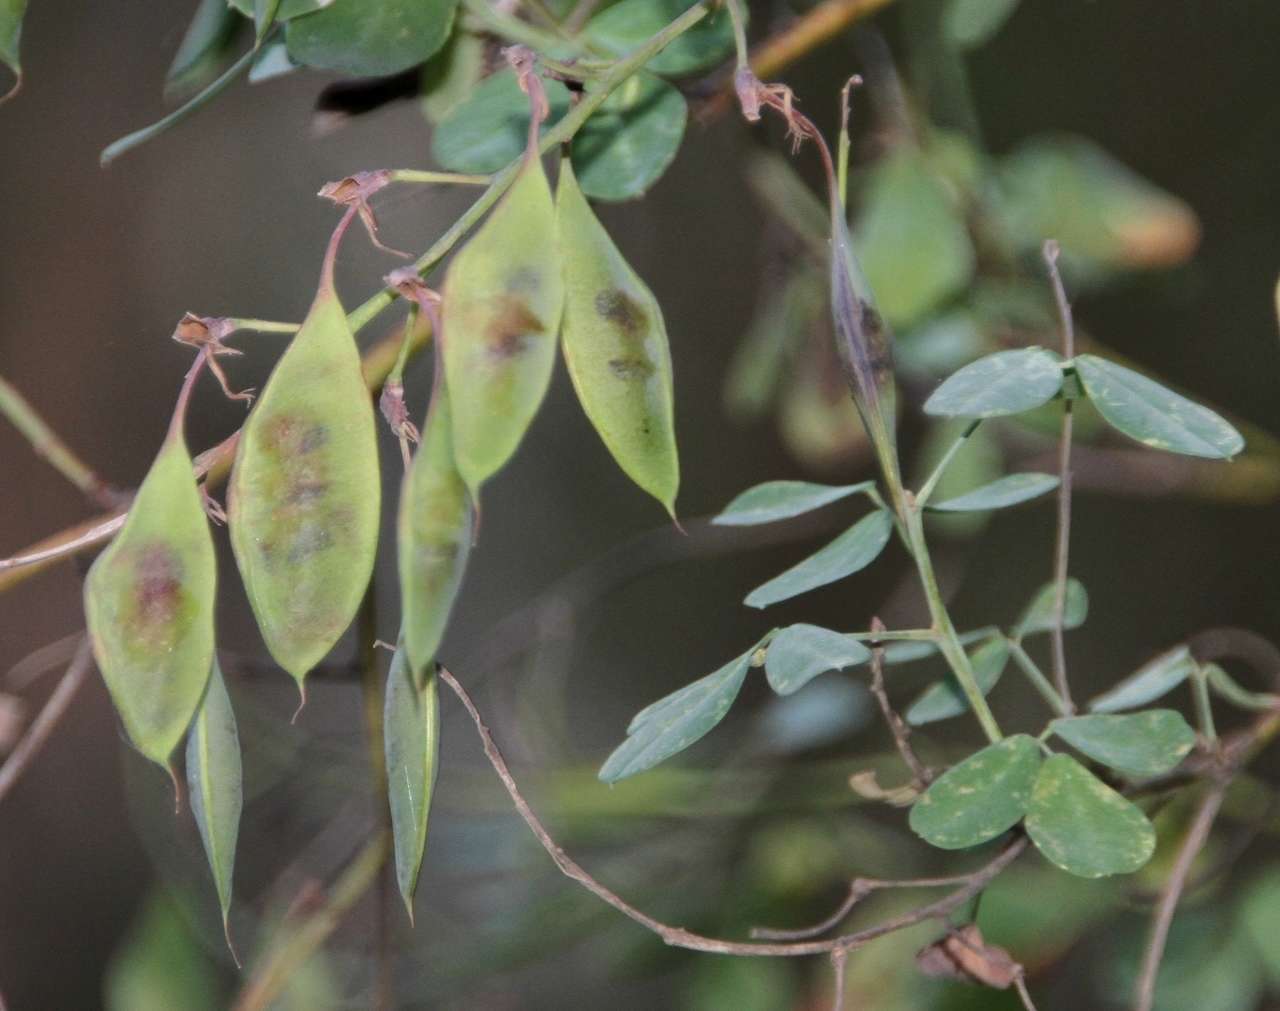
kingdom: Plantae
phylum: Tracheophyta
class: Magnoliopsida
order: Fabales
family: Fabaceae
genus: Goodia
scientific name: Goodia lotifolia
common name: Cloverleaf-poison
